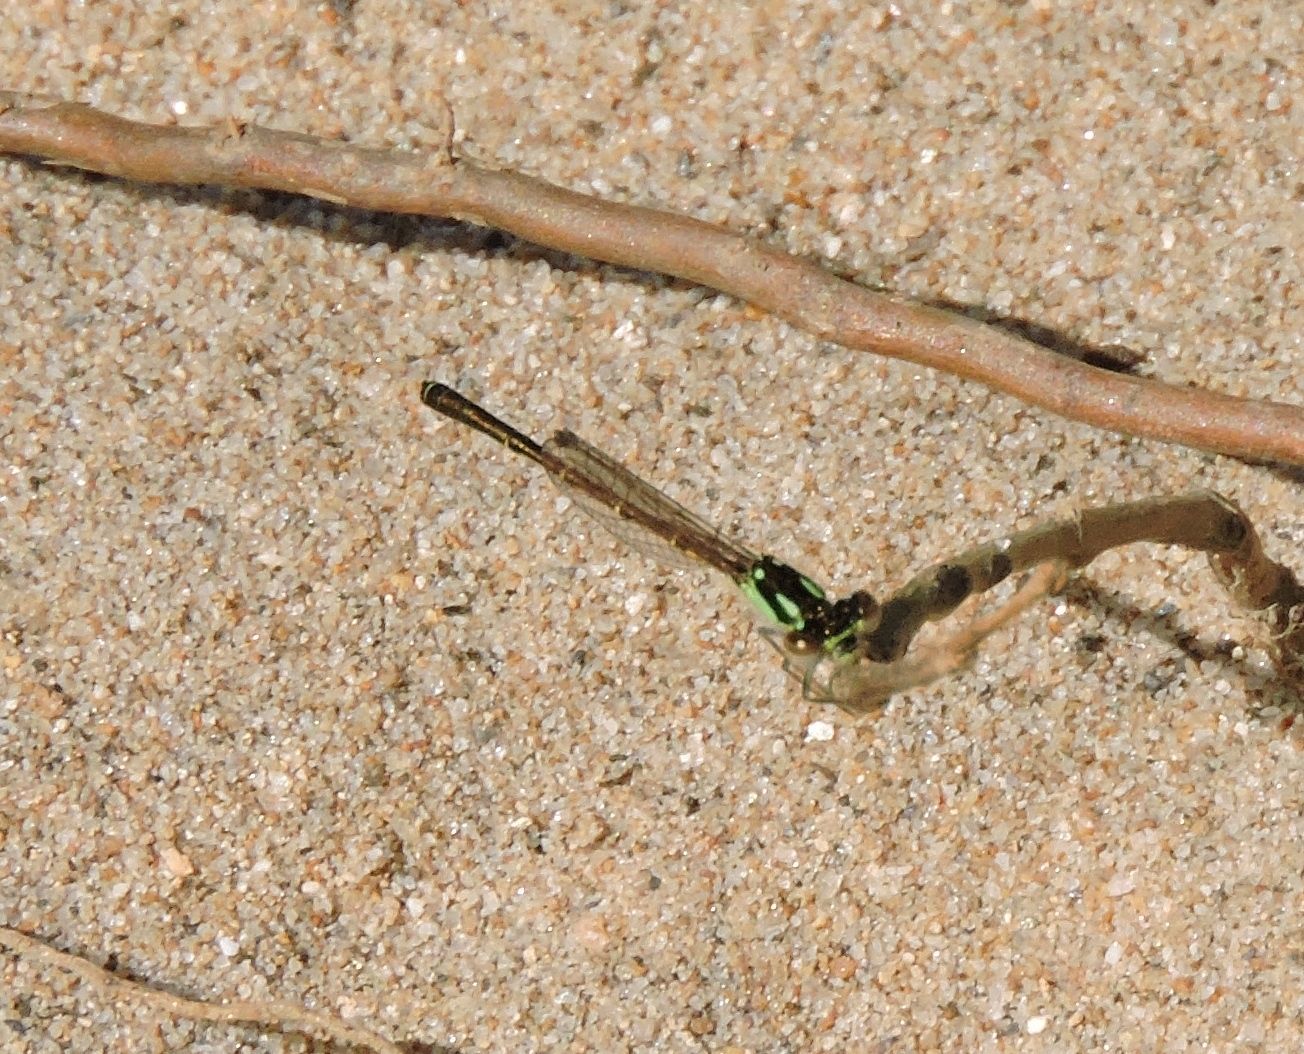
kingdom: Animalia
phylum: Arthropoda
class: Insecta
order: Odonata
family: Coenagrionidae
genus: Ischnura
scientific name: Ischnura posita
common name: Fragile forktail
